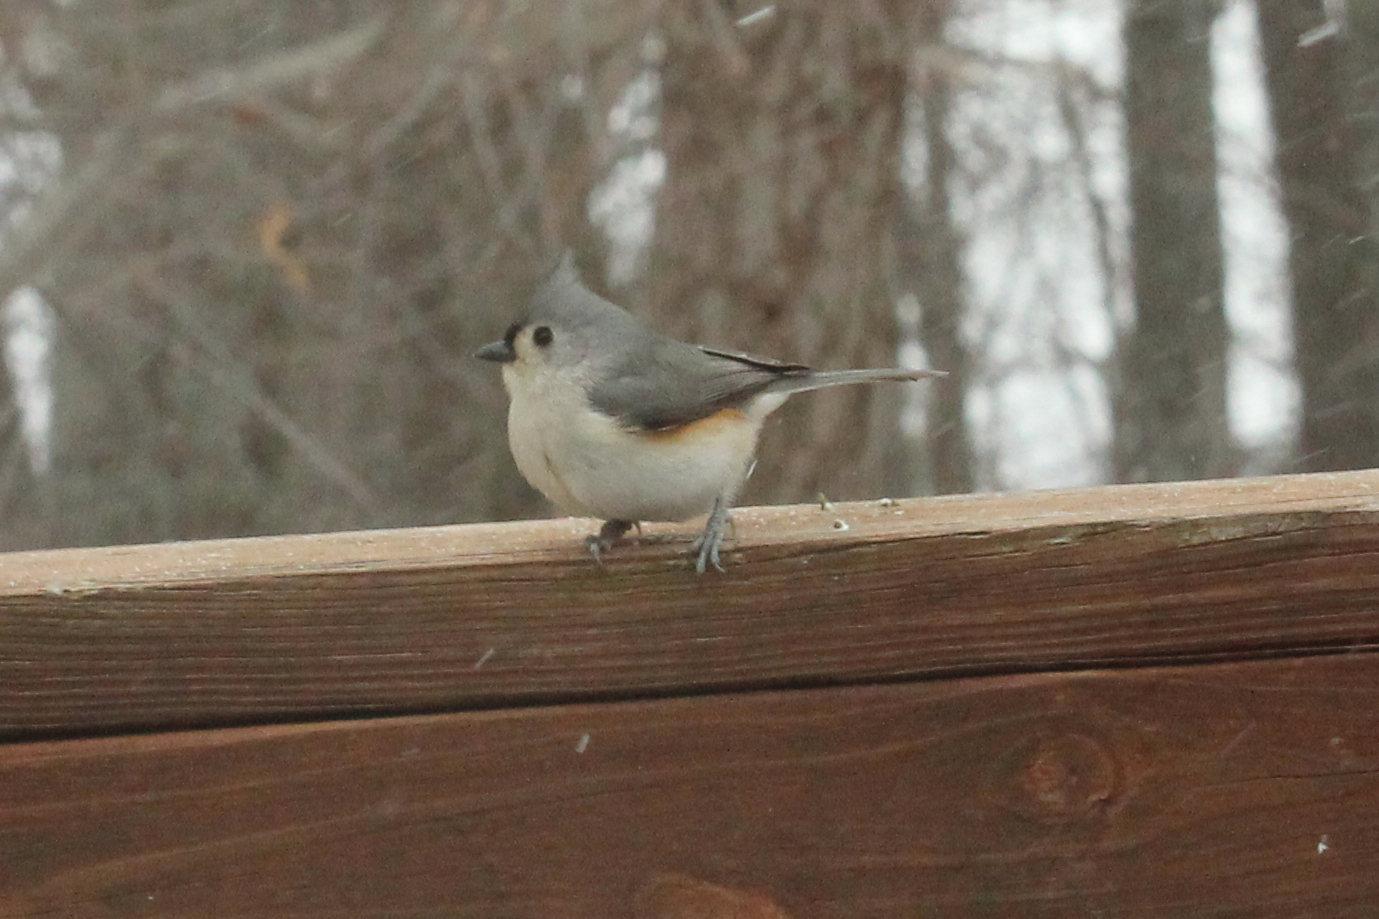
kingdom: Animalia
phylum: Chordata
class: Aves
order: Passeriformes
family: Paridae
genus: Baeolophus
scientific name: Baeolophus bicolor
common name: Tufted titmouse
